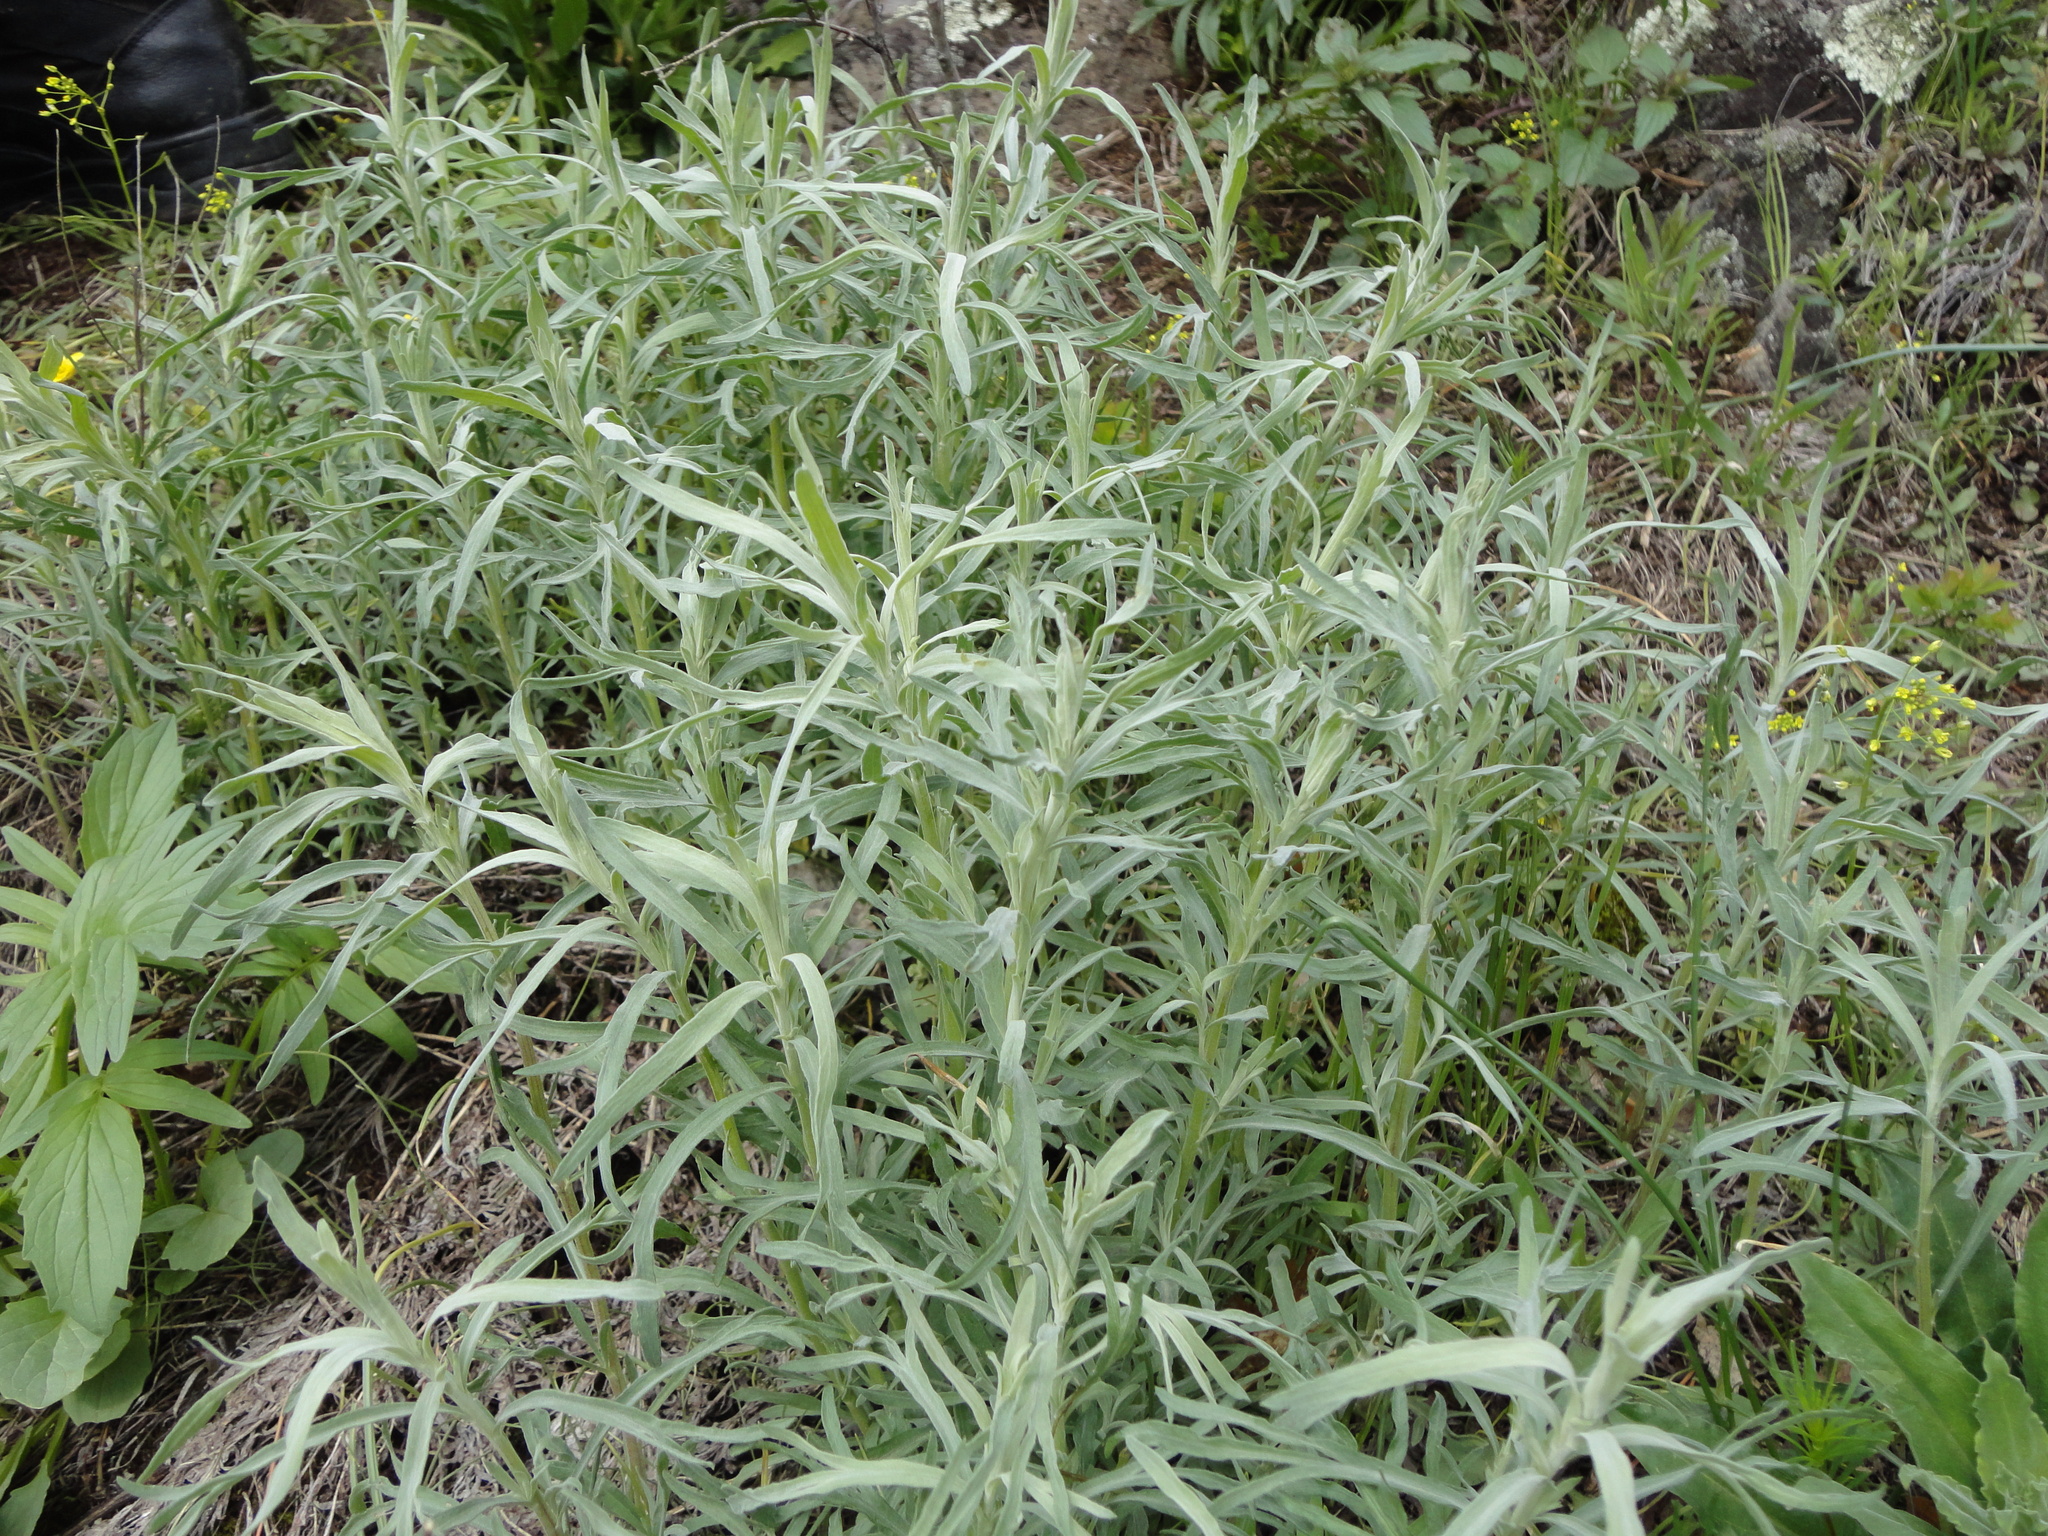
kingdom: Plantae
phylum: Tracheophyta
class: Magnoliopsida
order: Asterales
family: Asteraceae
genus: Artemisia
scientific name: Artemisia glauca
